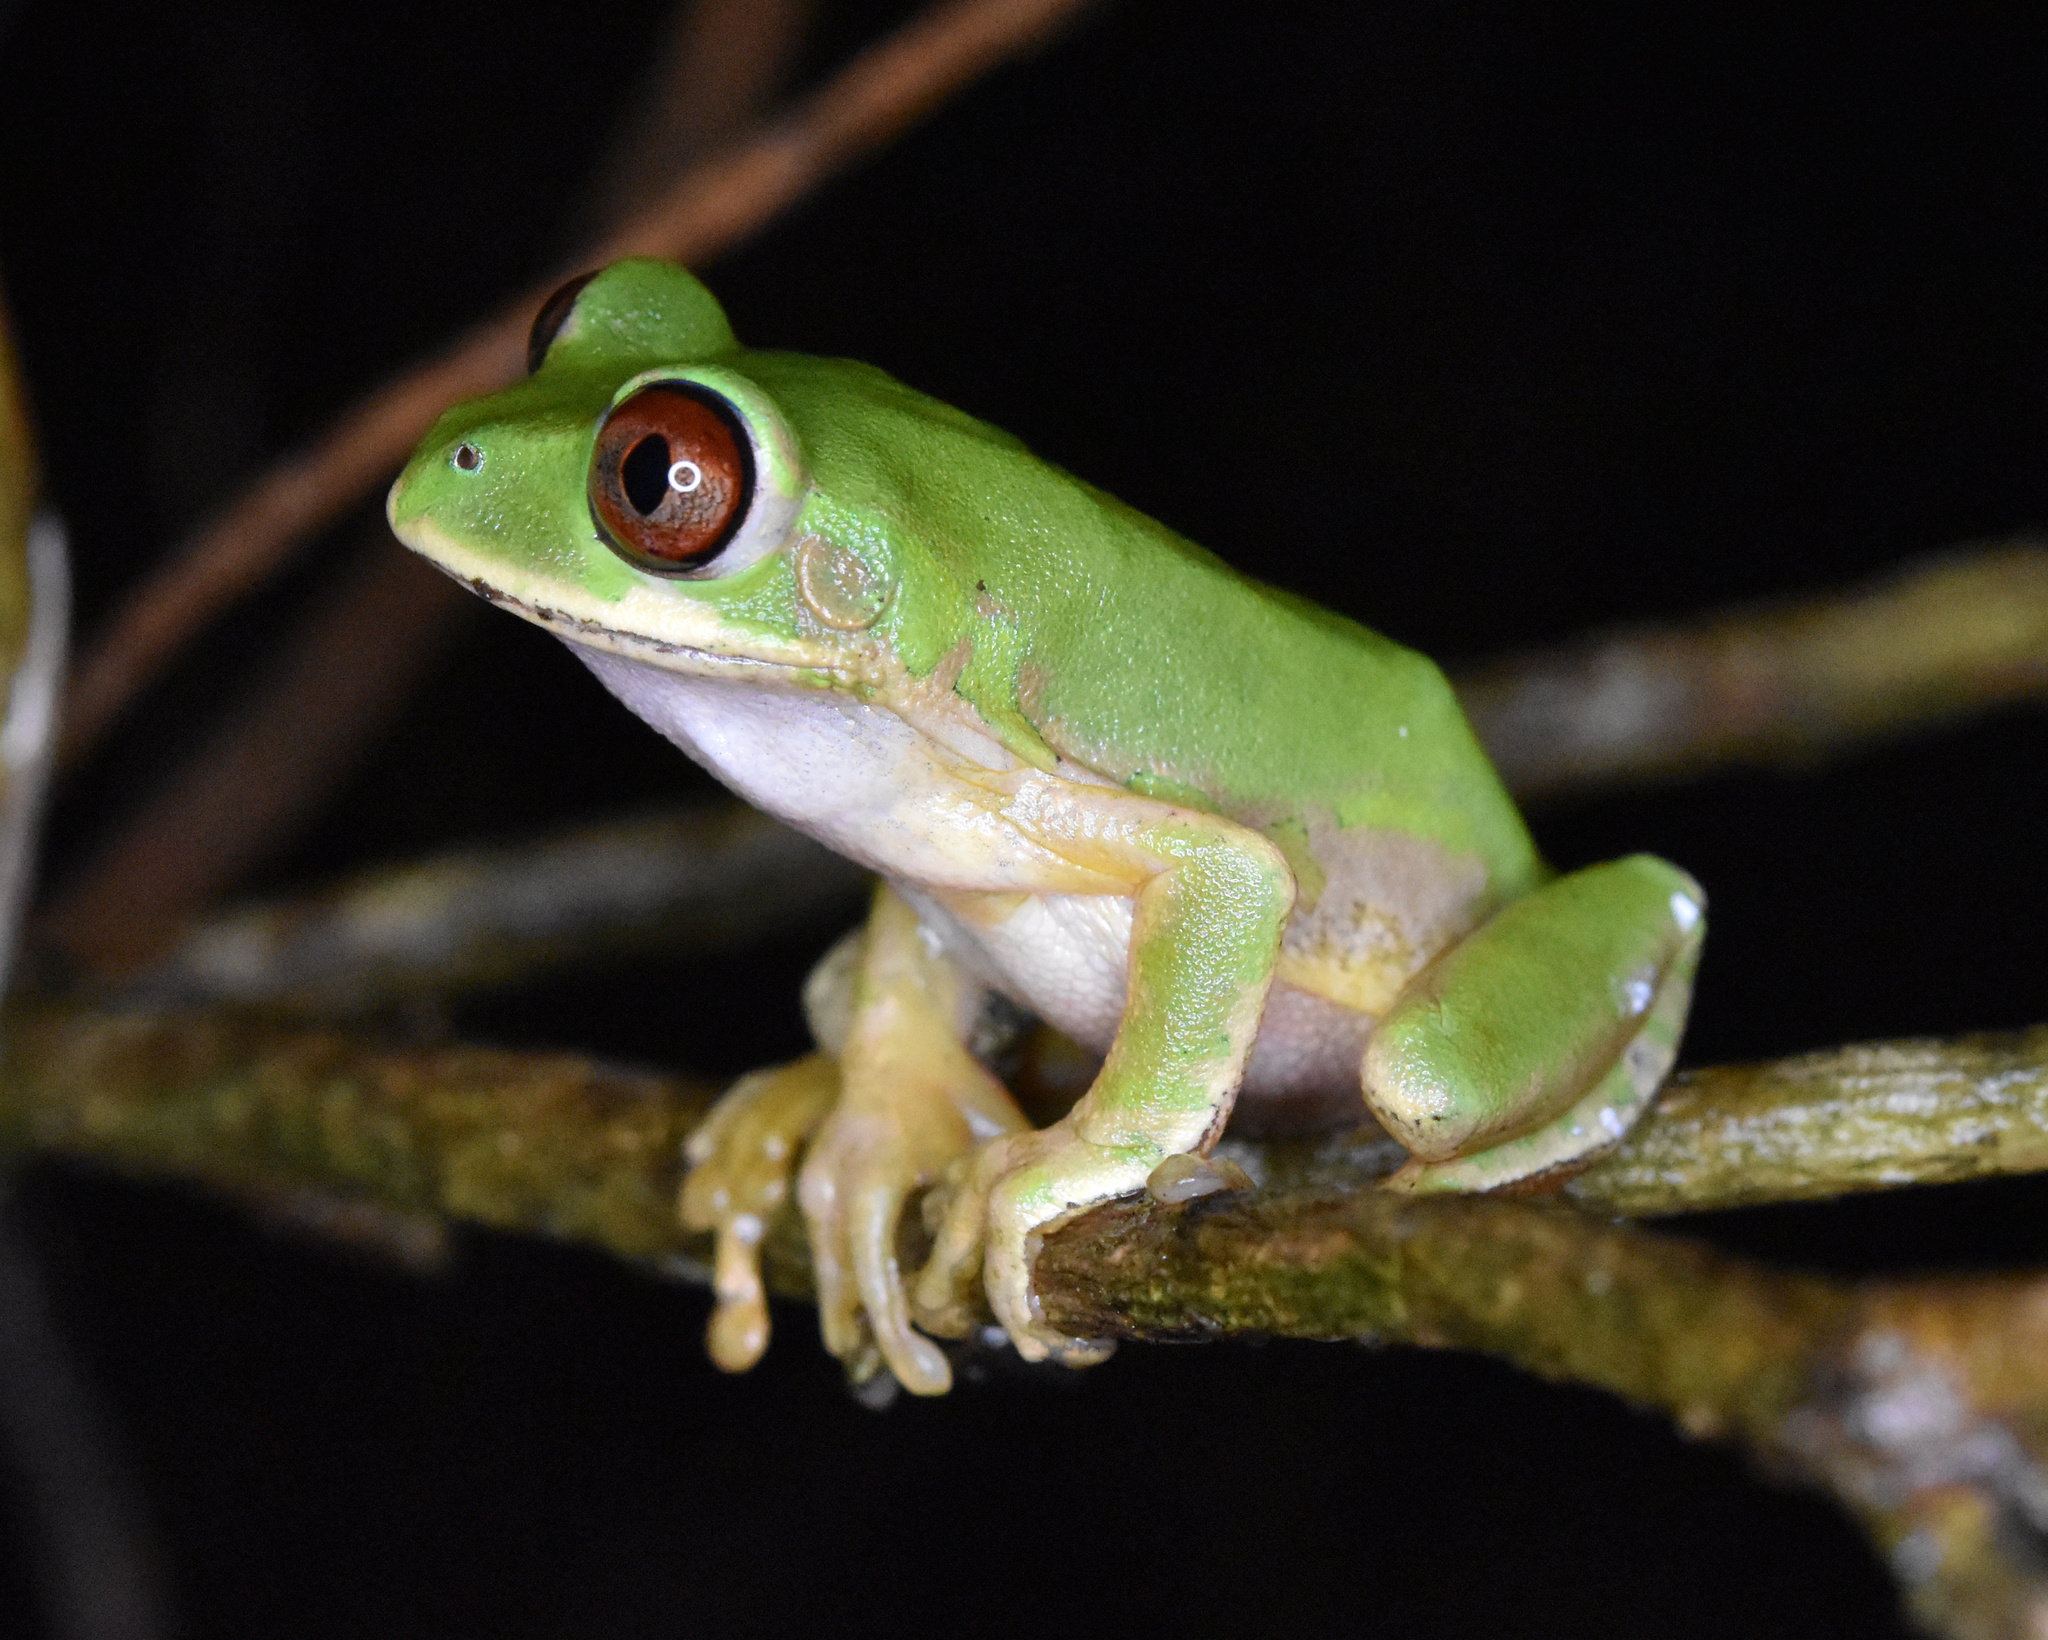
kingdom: Animalia
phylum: Chordata
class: Amphibia
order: Anura
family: Arthroleptidae
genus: Leptopelis
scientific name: Leptopelis natalensis
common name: Natal tree frog
